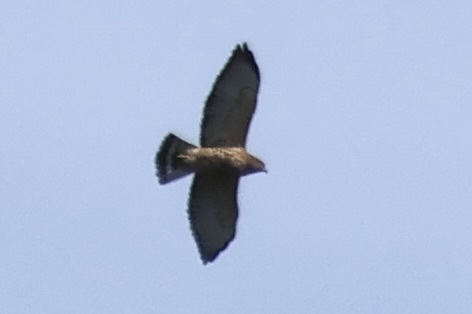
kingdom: Animalia
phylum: Chordata
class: Aves
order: Accipitriformes
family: Accipitridae
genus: Buteo
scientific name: Buteo platypterus
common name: Broad-winged hawk
